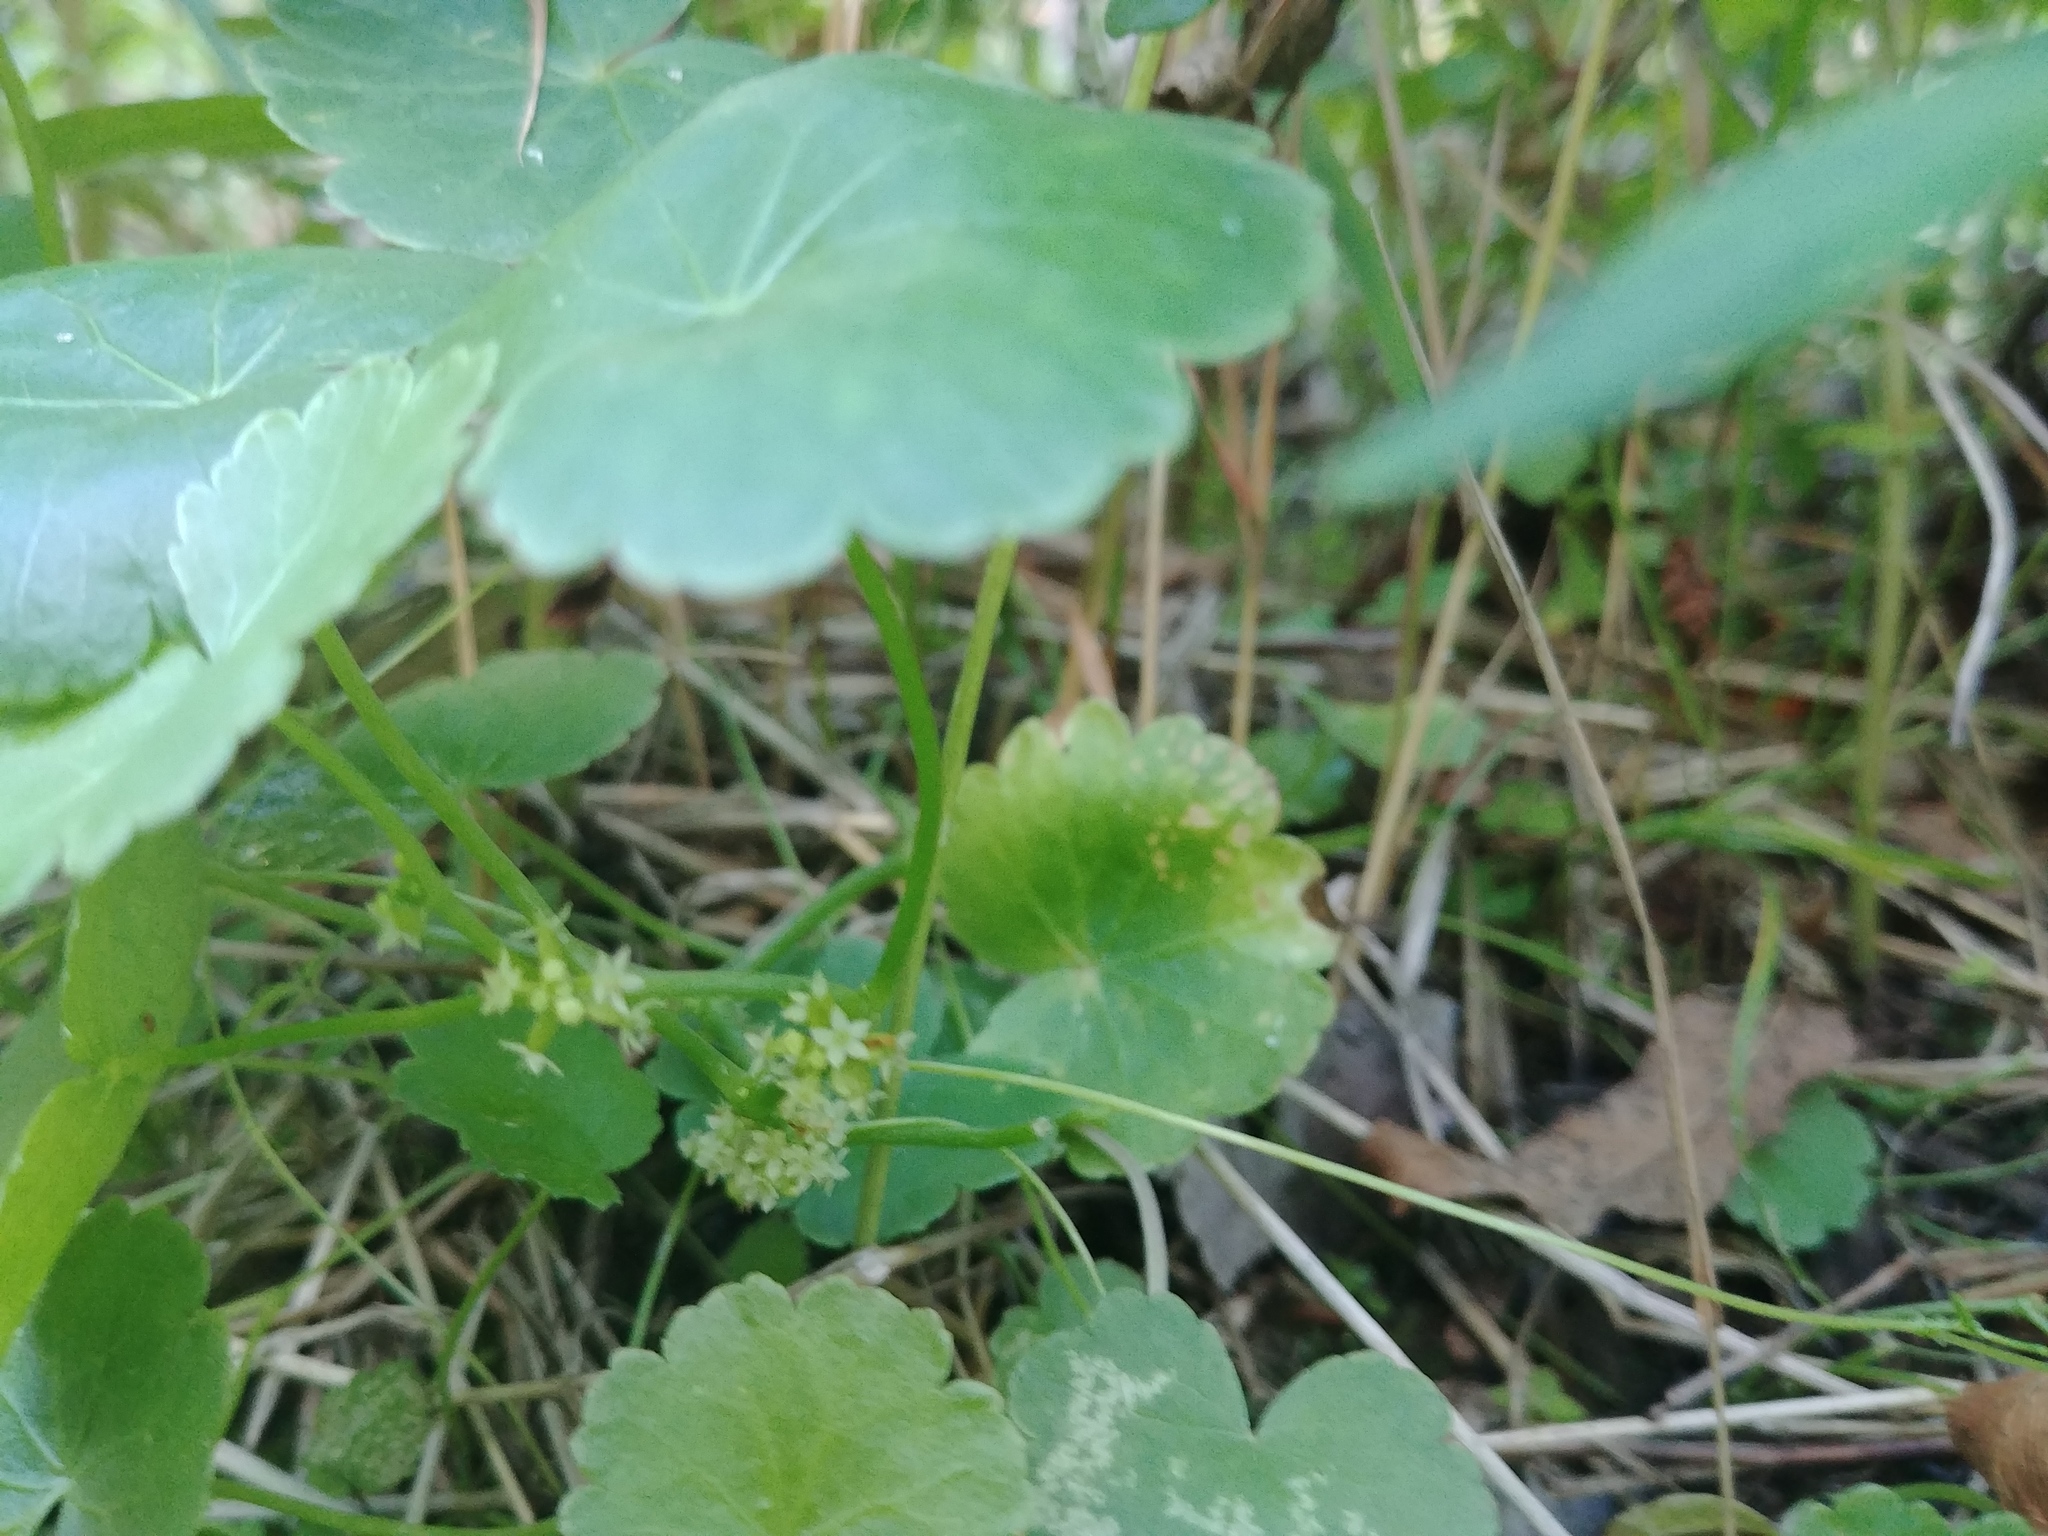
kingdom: Plantae
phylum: Tracheophyta
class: Magnoliopsida
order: Apiales
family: Araliaceae
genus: Hydrocotyle
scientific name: Hydrocotyle americana
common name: American water-pennywort
